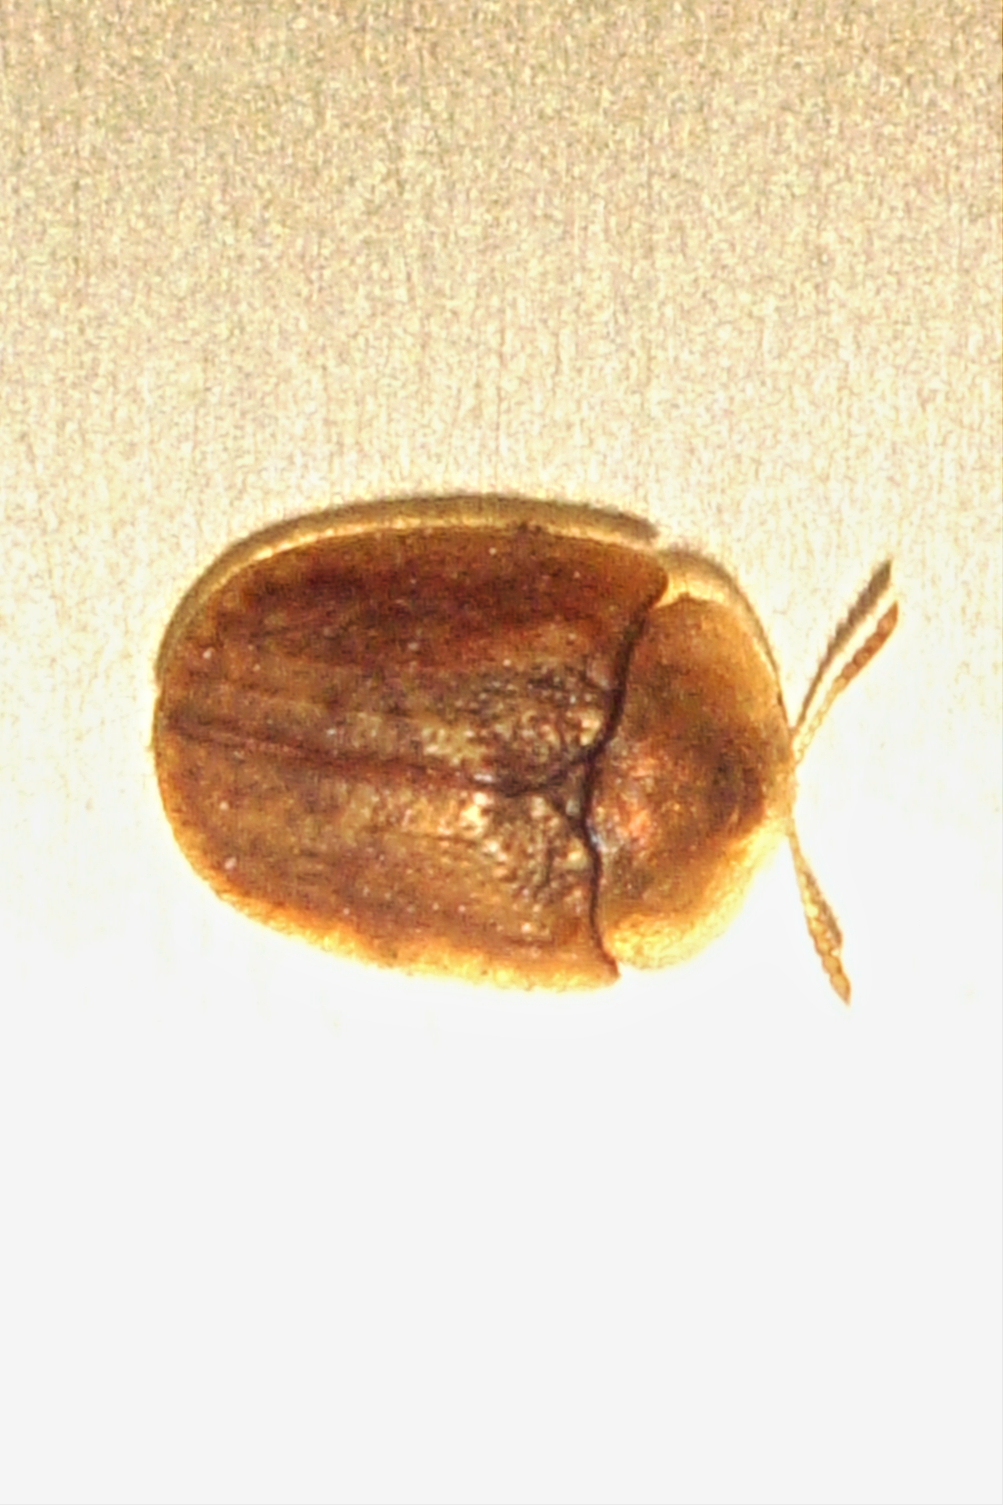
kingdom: Animalia
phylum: Arthropoda
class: Insecta
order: Coleoptera
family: Chrysomelidae
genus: Hypocassida
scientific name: Hypocassida subferruginea
